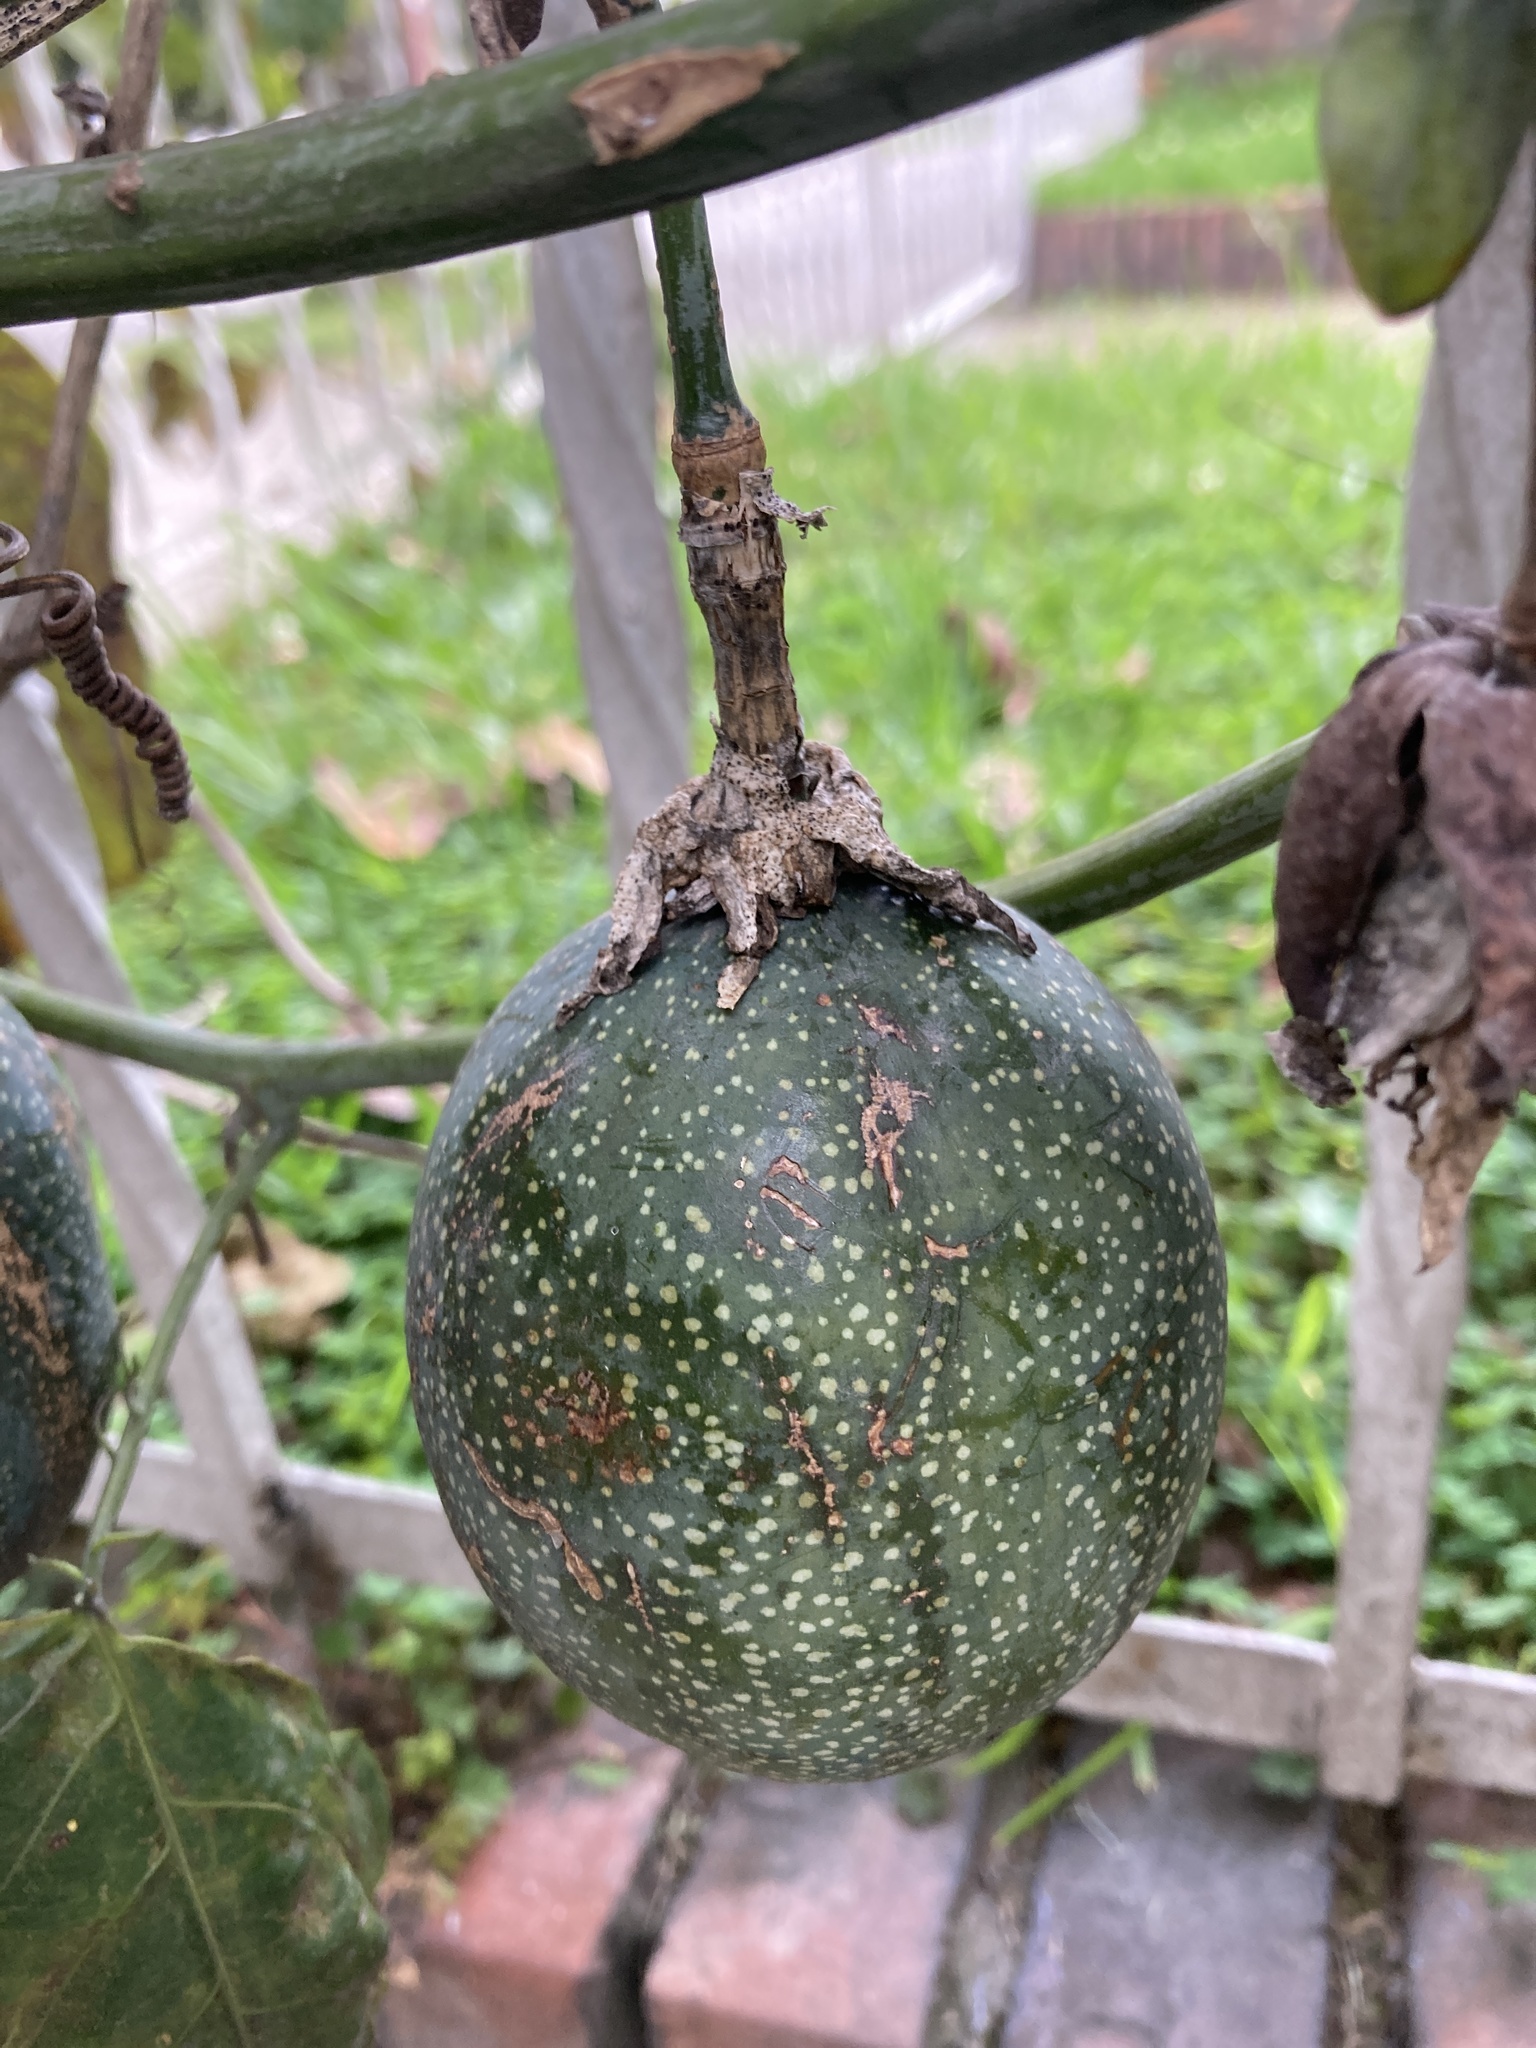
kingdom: Plantae
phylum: Tracheophyta
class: Magnoliopsida
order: Malpighiales
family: Passifloraceae
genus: Passiflora
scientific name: Passiflora ligularis
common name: Sweet granadilla
